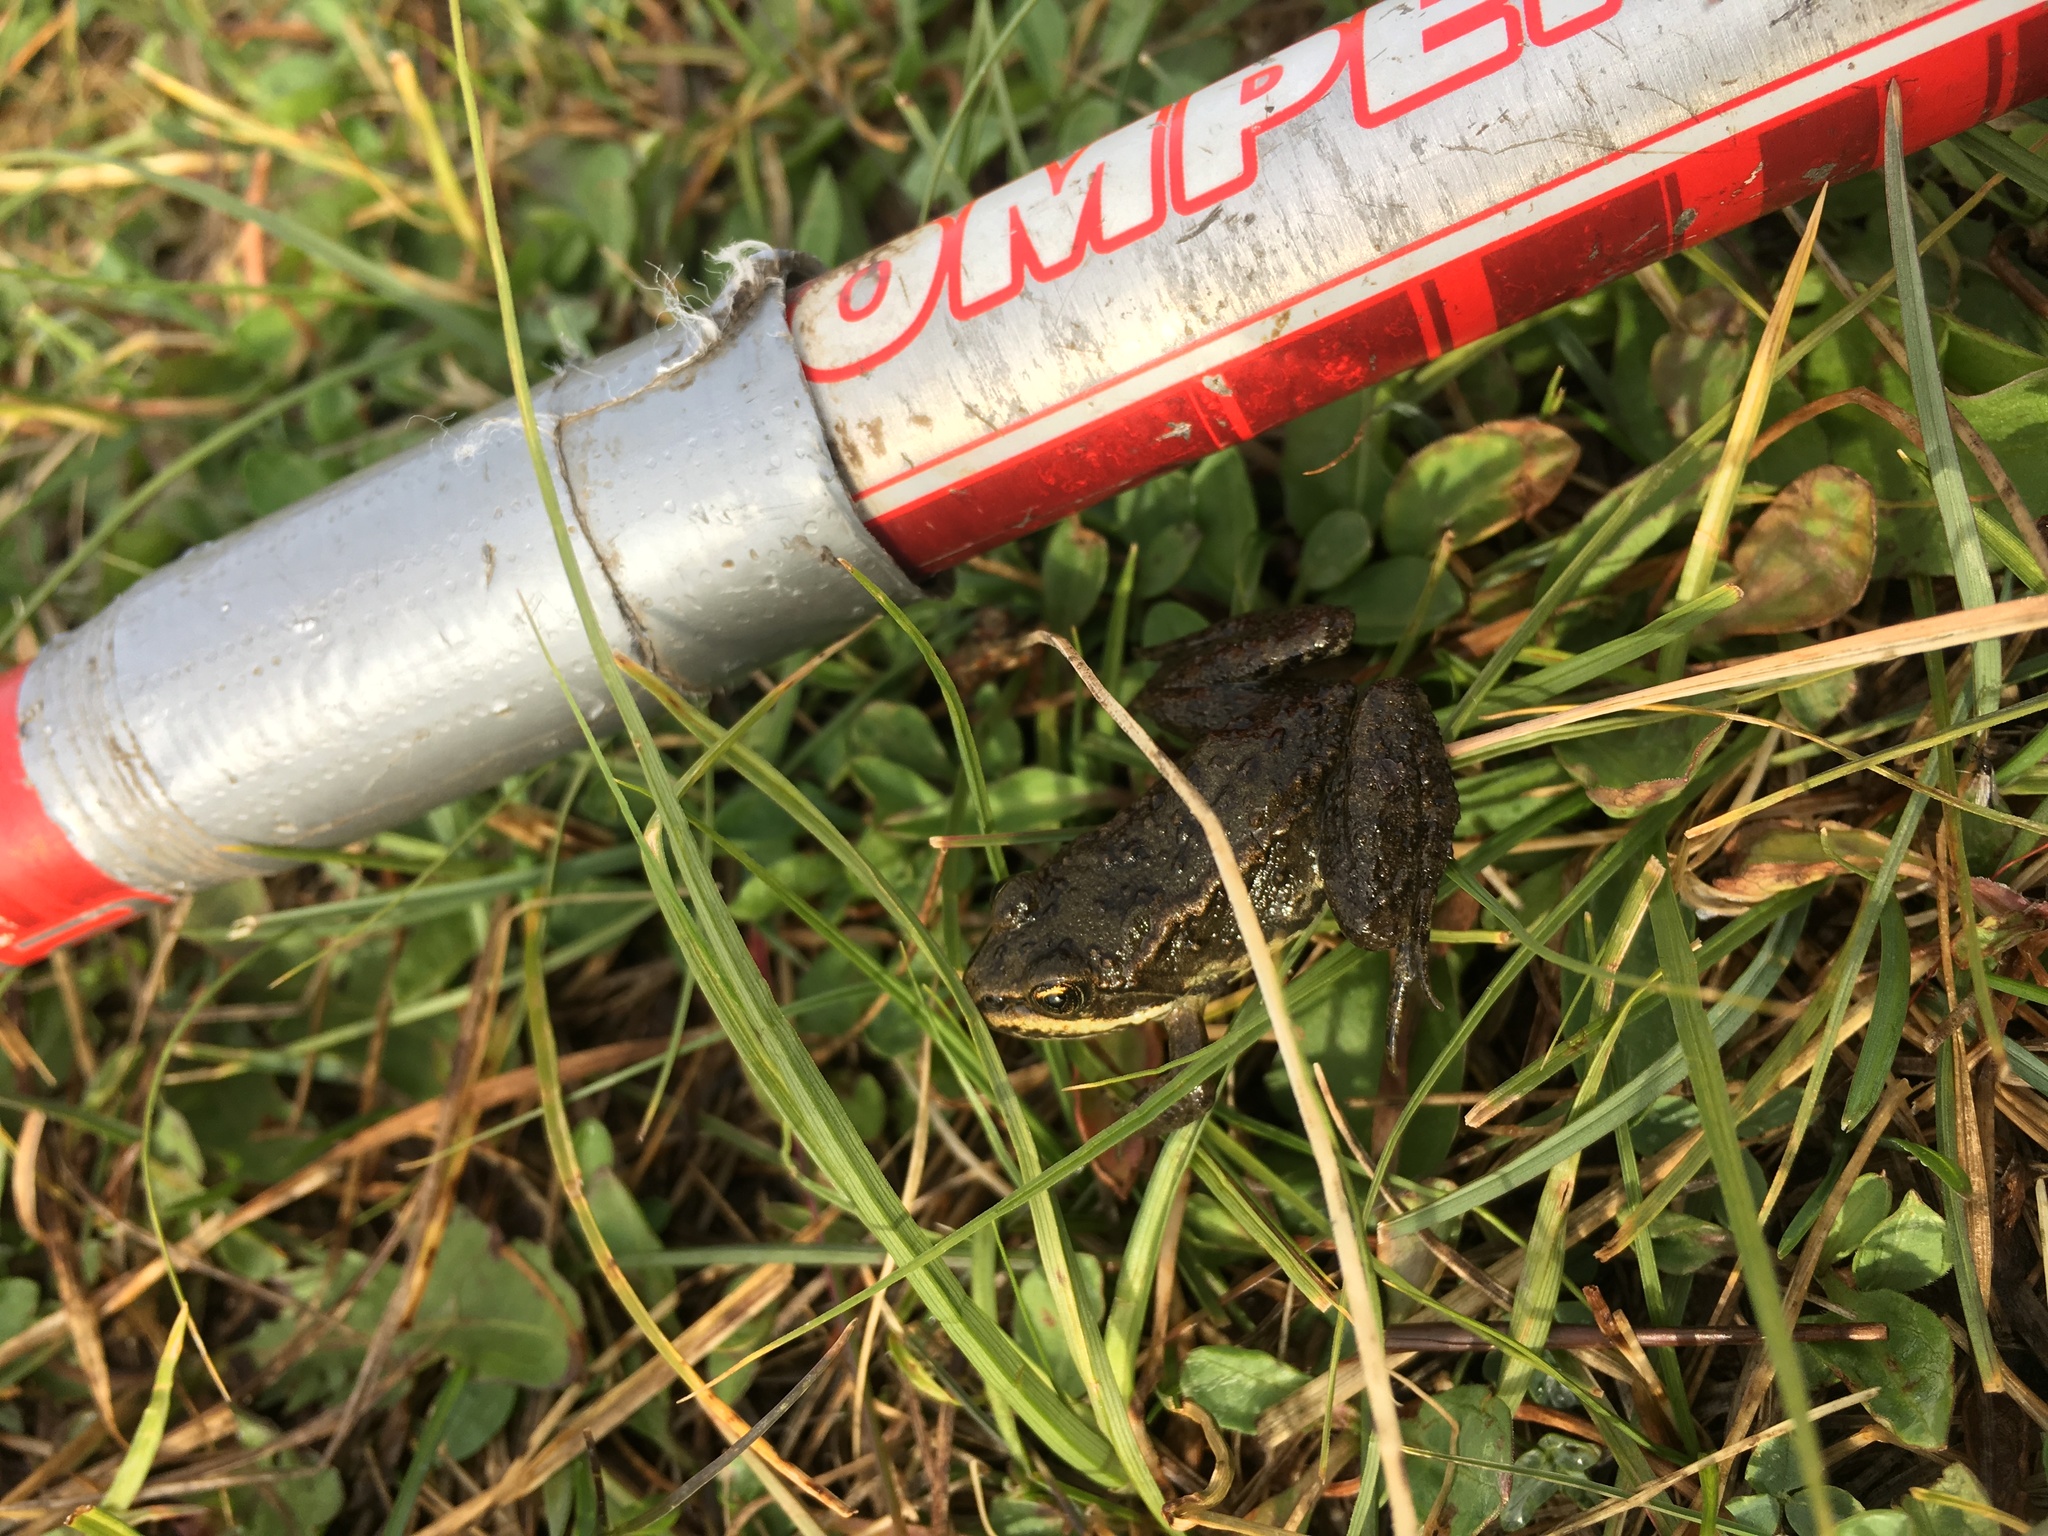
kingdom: Animalia
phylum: Chordata
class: Amphibia
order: Anura
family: Ranidae
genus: Rana
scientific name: Rana luteiventris
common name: Columbia spotted frog
